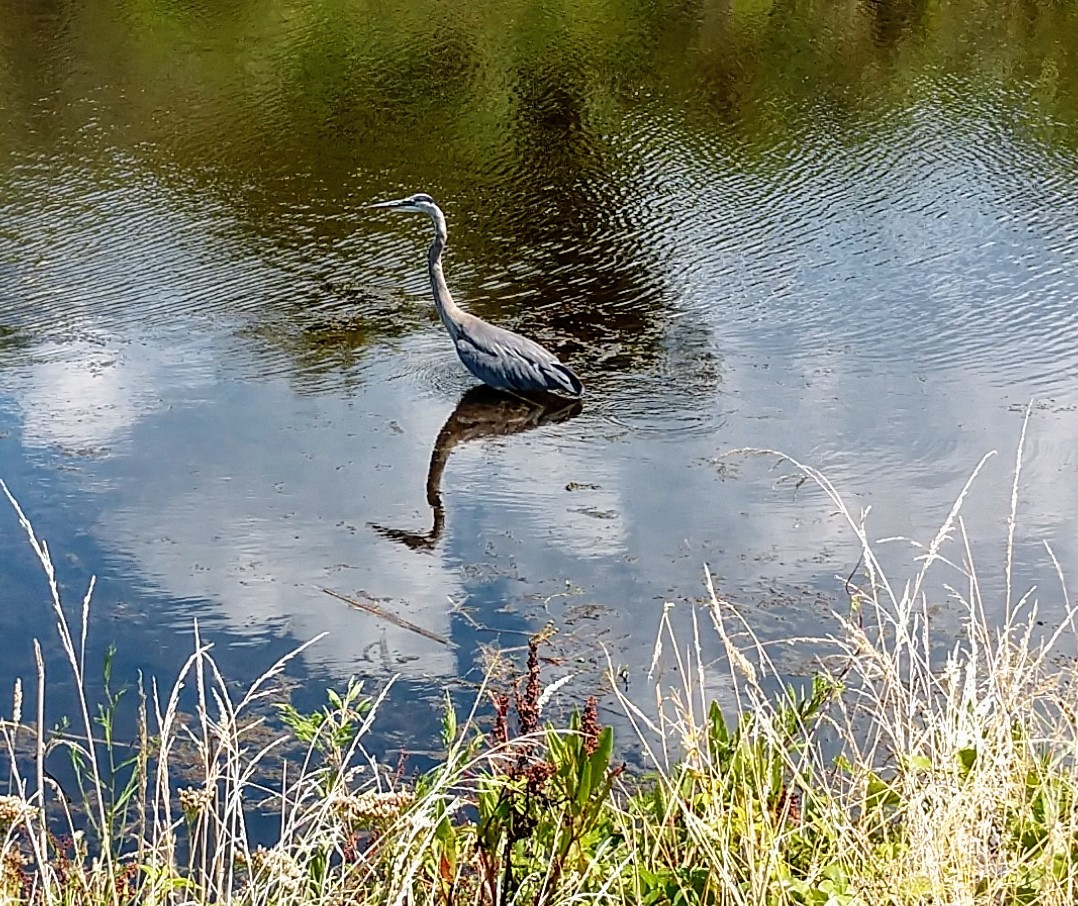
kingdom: Animalia
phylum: Chordata
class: Aves
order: Pelecaniformes
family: Ardeidae
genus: Ardea
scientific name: Ardea herodias
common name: Great blue heron
